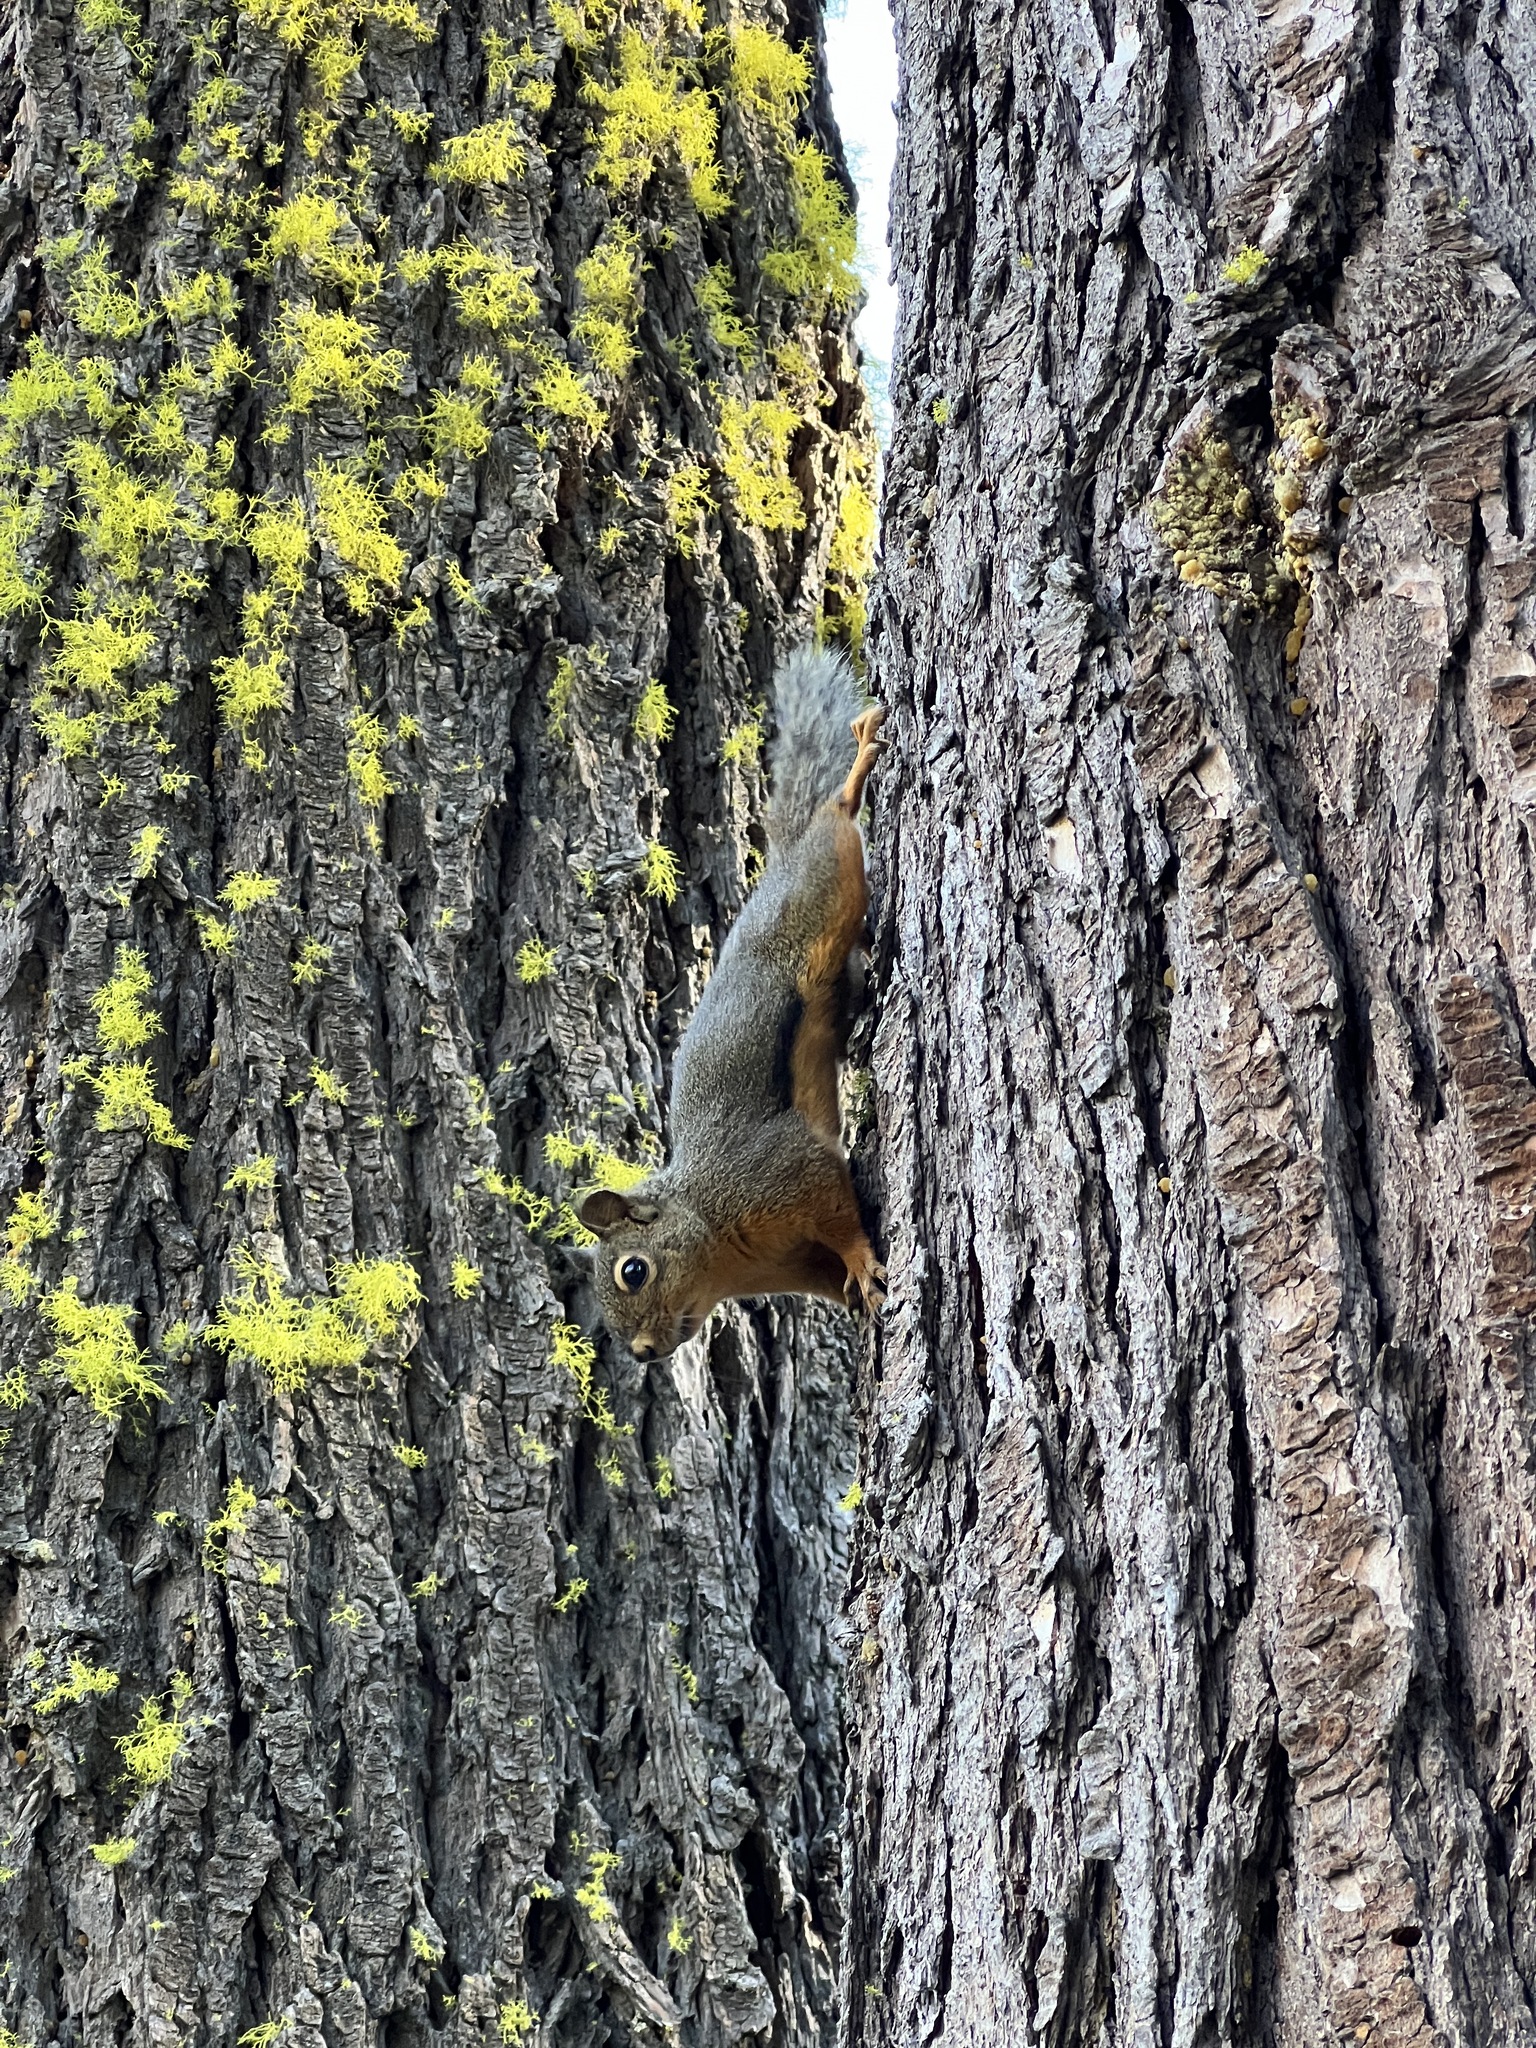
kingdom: Animalia
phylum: Chordata
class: Mammalia
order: Rodentia
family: Sciuridae
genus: Tamiasciurus
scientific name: Tamiasciurus douglasii
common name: Douglas's squirrel
